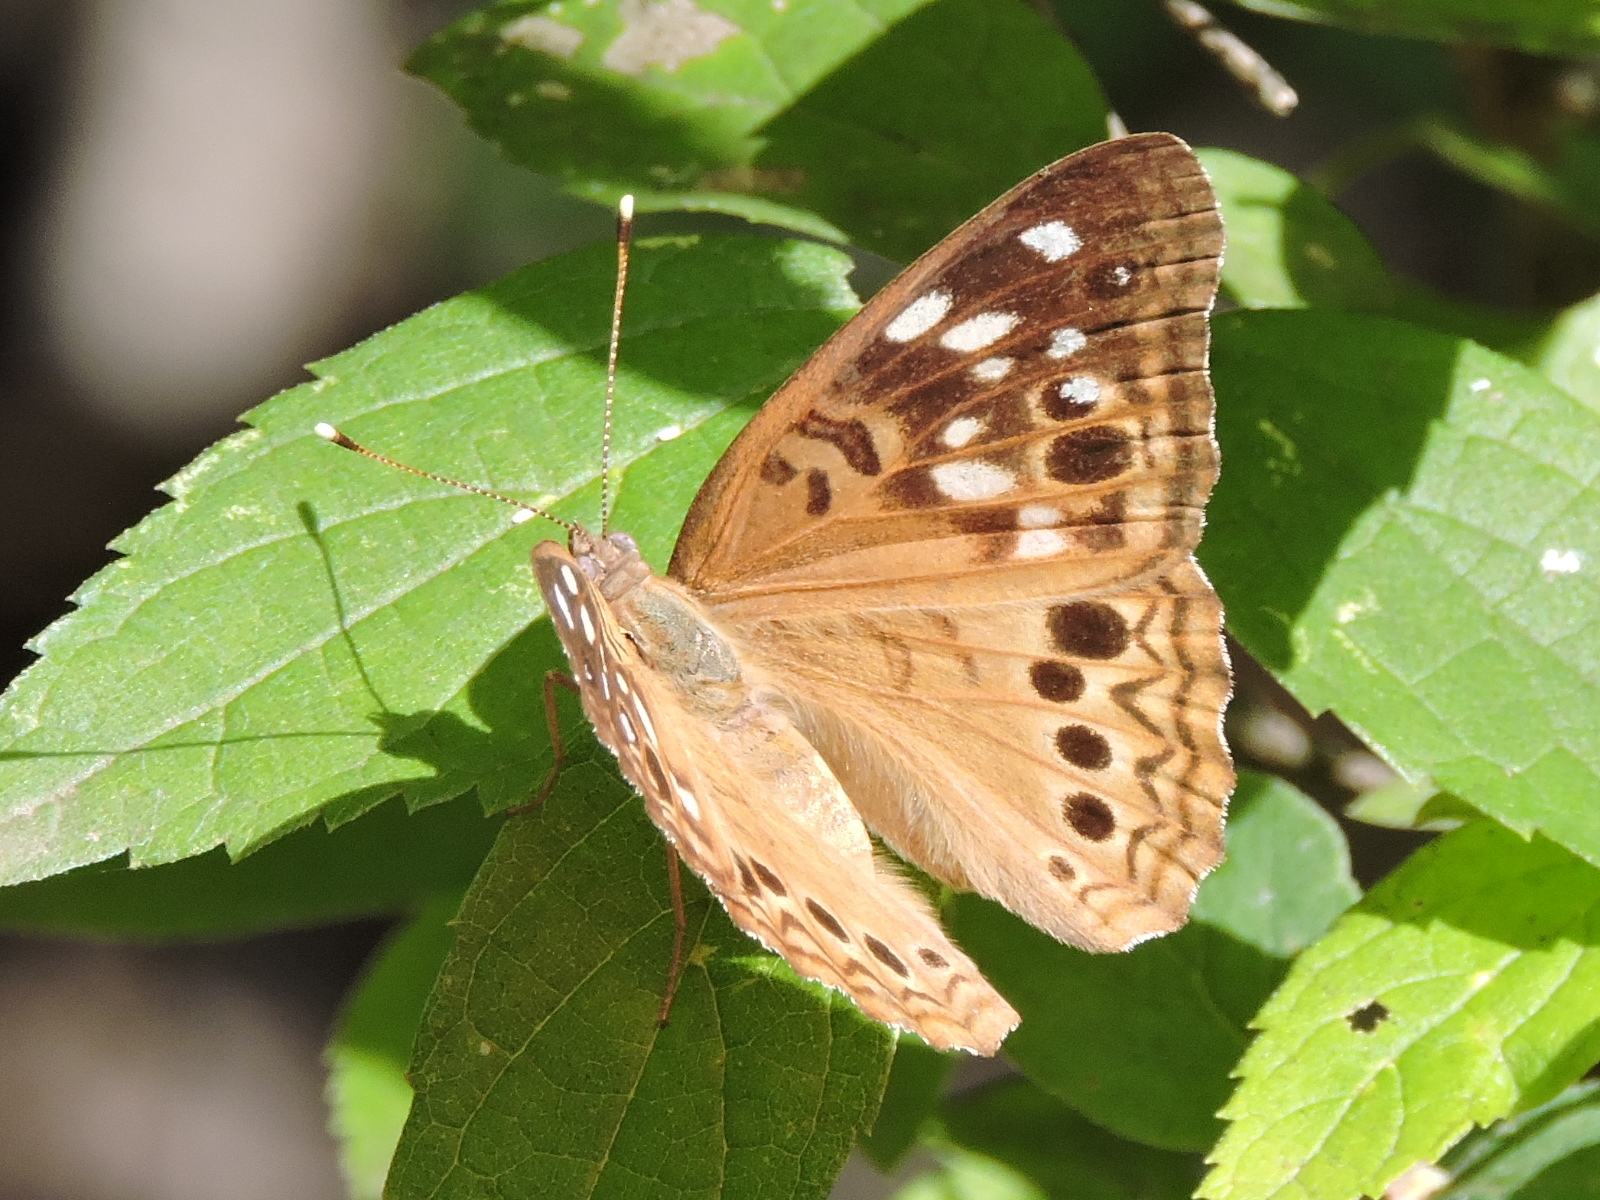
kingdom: Animalia
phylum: Arthropoda
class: Insecta
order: Lepidoptera
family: Nymphalidae
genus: Asterocampa
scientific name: Asterocampa celtis
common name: Hackberry emperor
